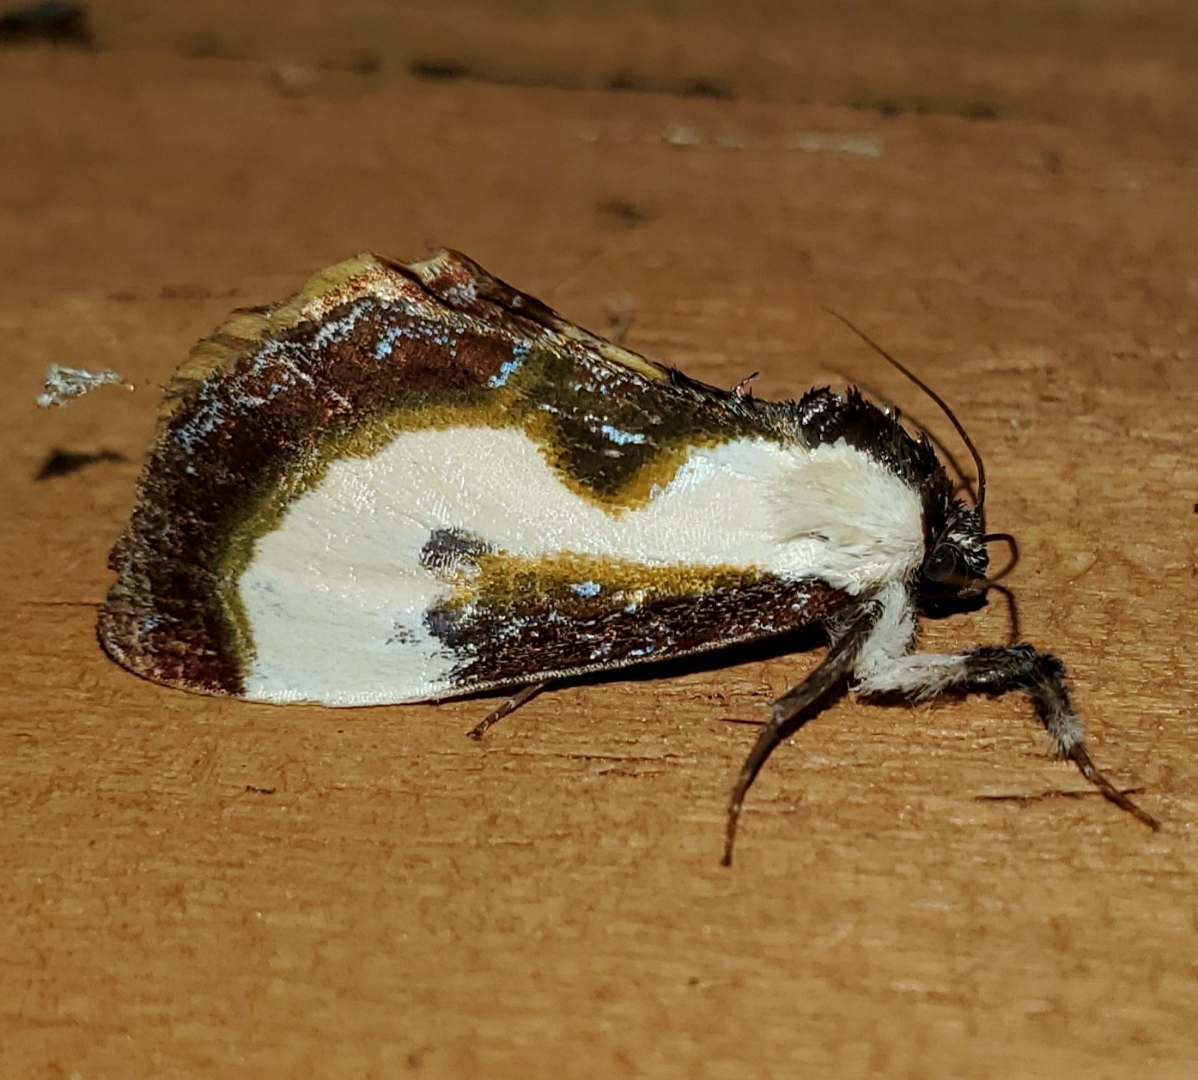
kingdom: Animalia
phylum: Arthropoda
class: Insecta
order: Lepidoptera
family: Noctuidae
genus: Eudryas
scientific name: Eudryas grata
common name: Beautiful wood-nymph
